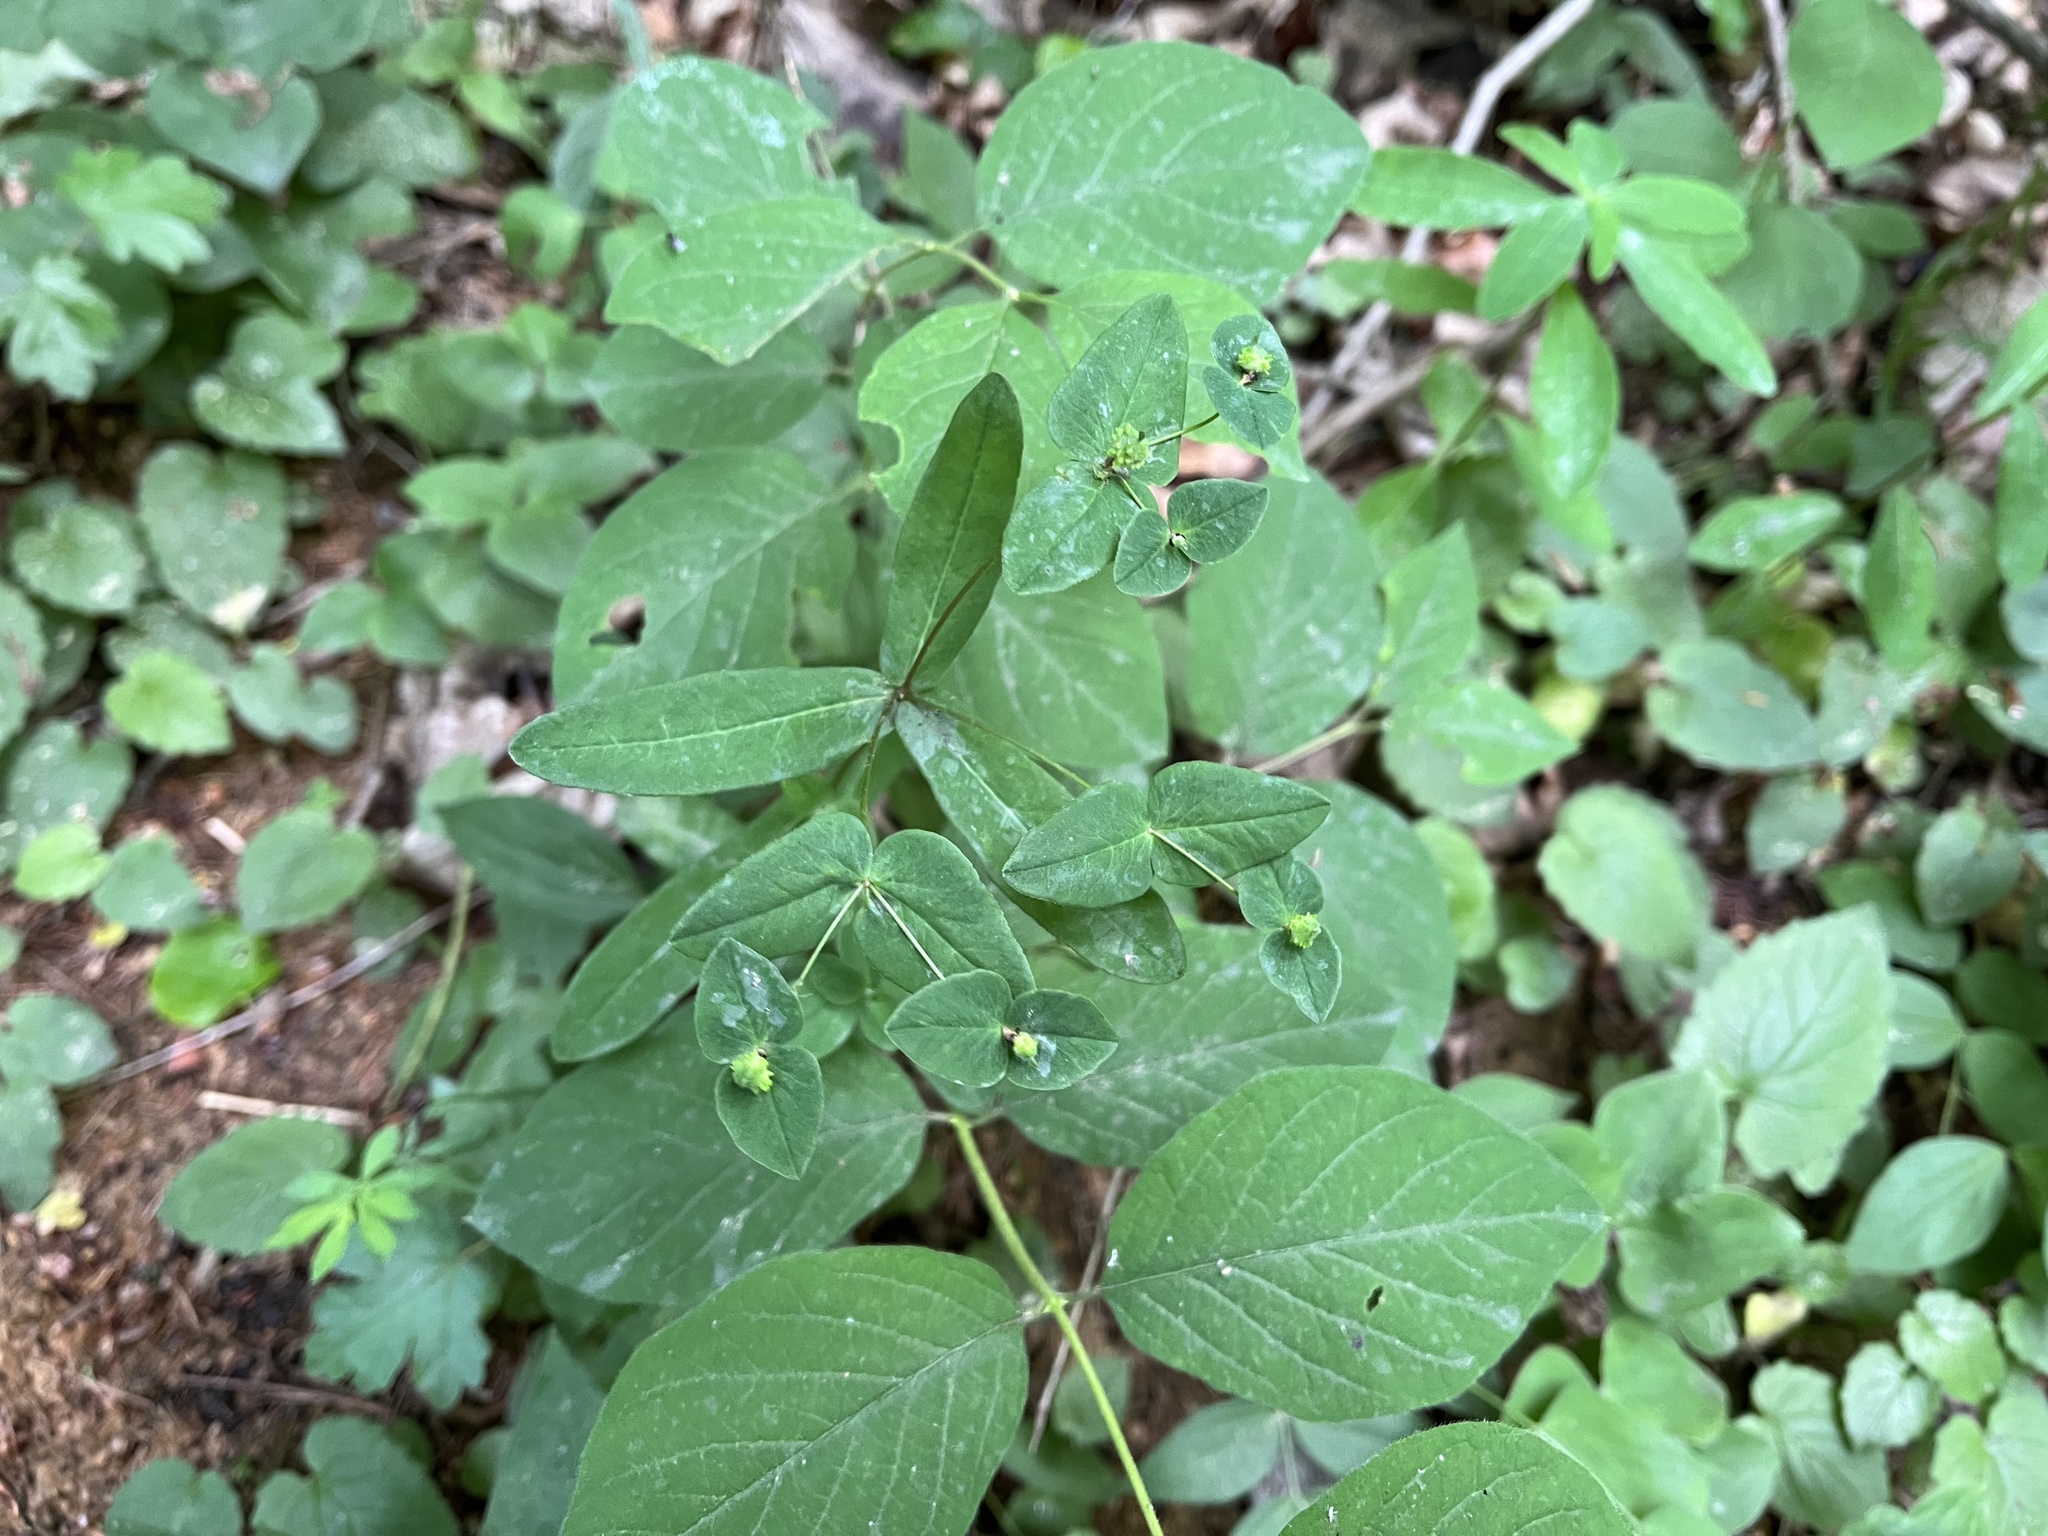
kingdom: Plantae
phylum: Tracheophyta
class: Magnoliopsida
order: Malpighiales
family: Euphorbiaceae
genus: Euphorbia
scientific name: Euphorbia dulcis
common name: Sweet spurge
